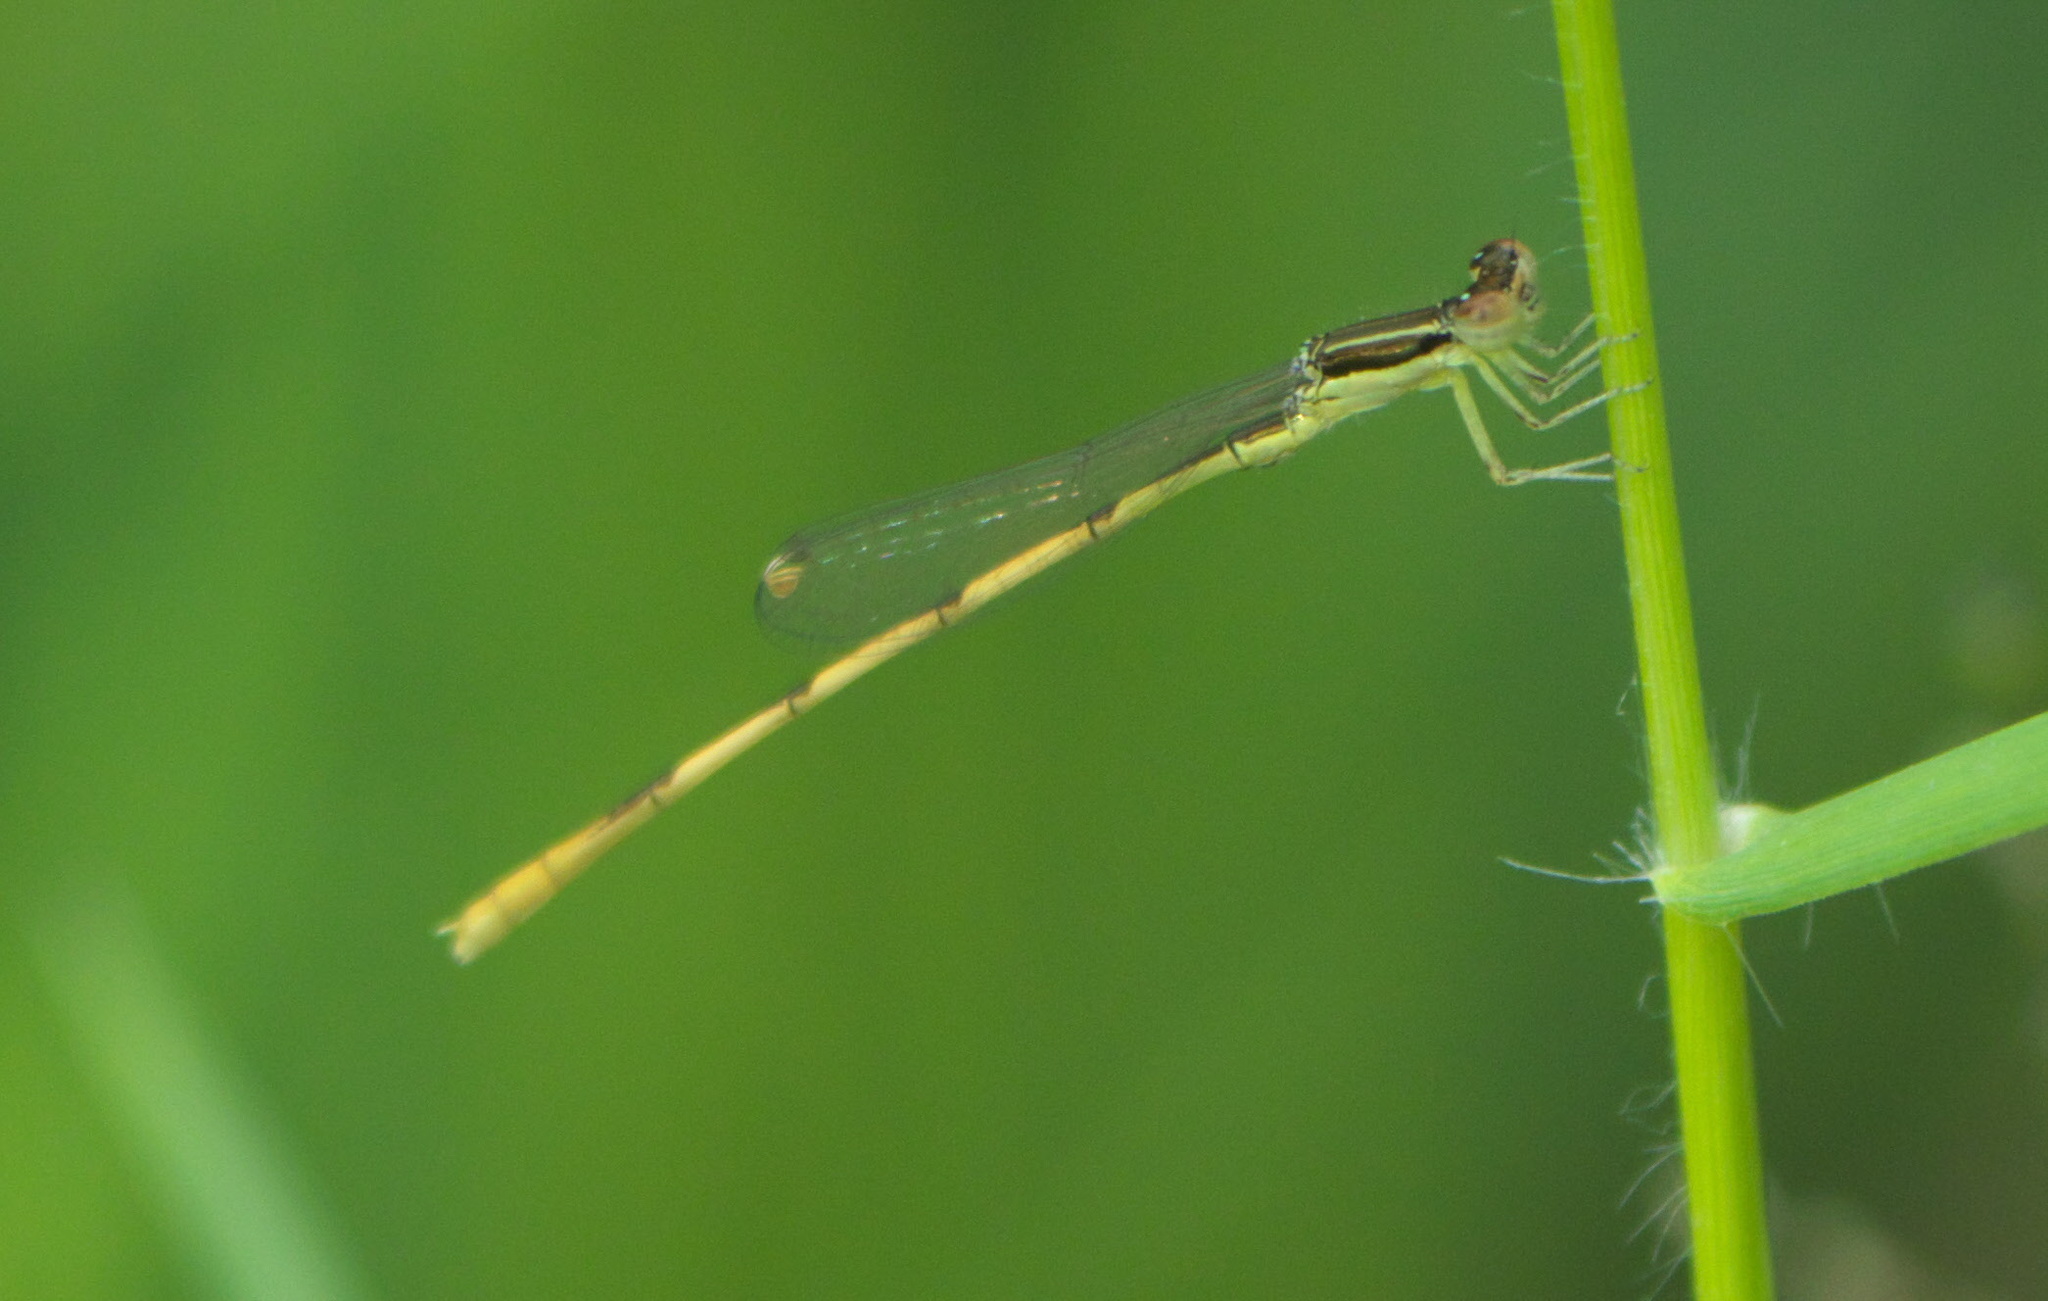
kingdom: Animalia
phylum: Arthropoda
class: Insecta
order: Odonata
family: Coenagrionidae
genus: Ischnura
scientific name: Ischnura hastata
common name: Citrine forktail
